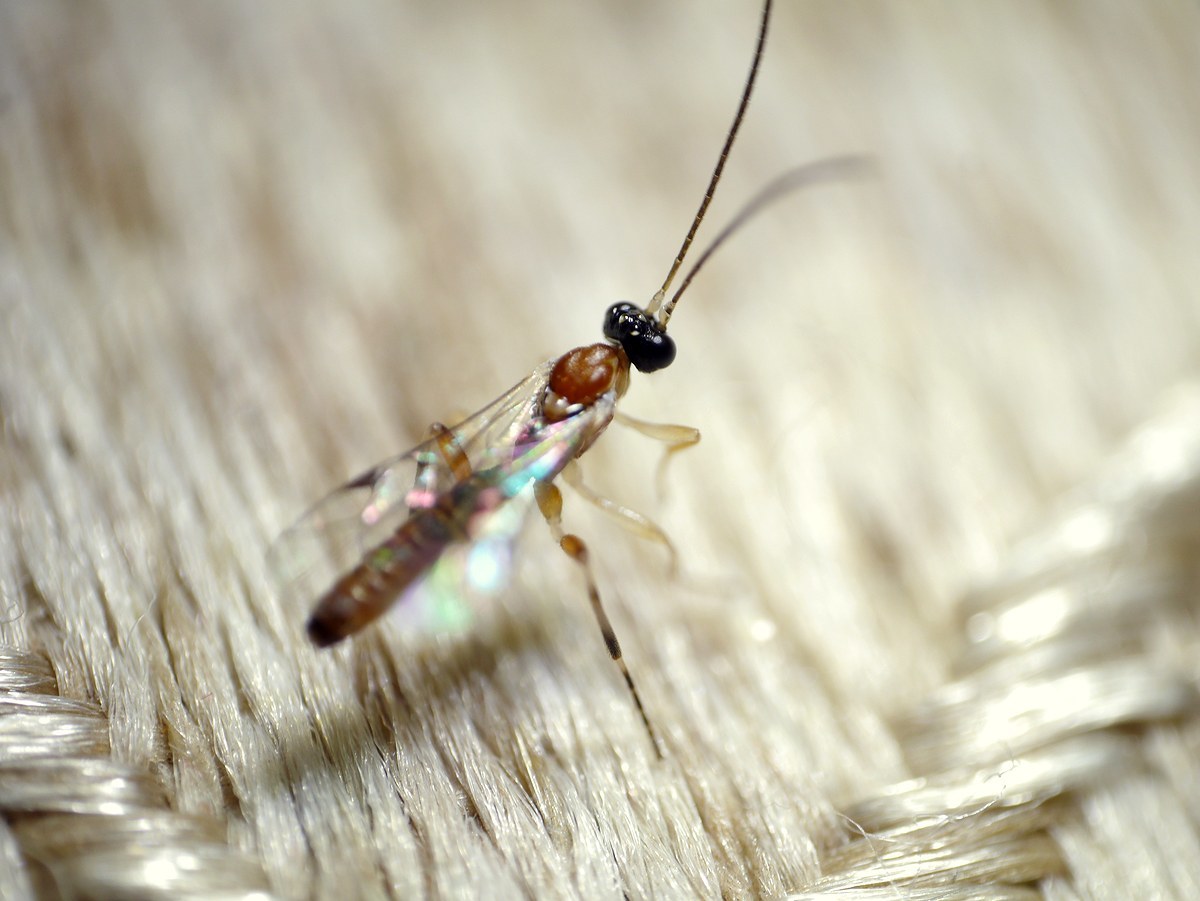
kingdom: Animalia
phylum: Arthropoda
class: Insecta
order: Hymenoptera
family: Ichneumonidae
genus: Zatypota
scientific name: Zatypota bohemani
